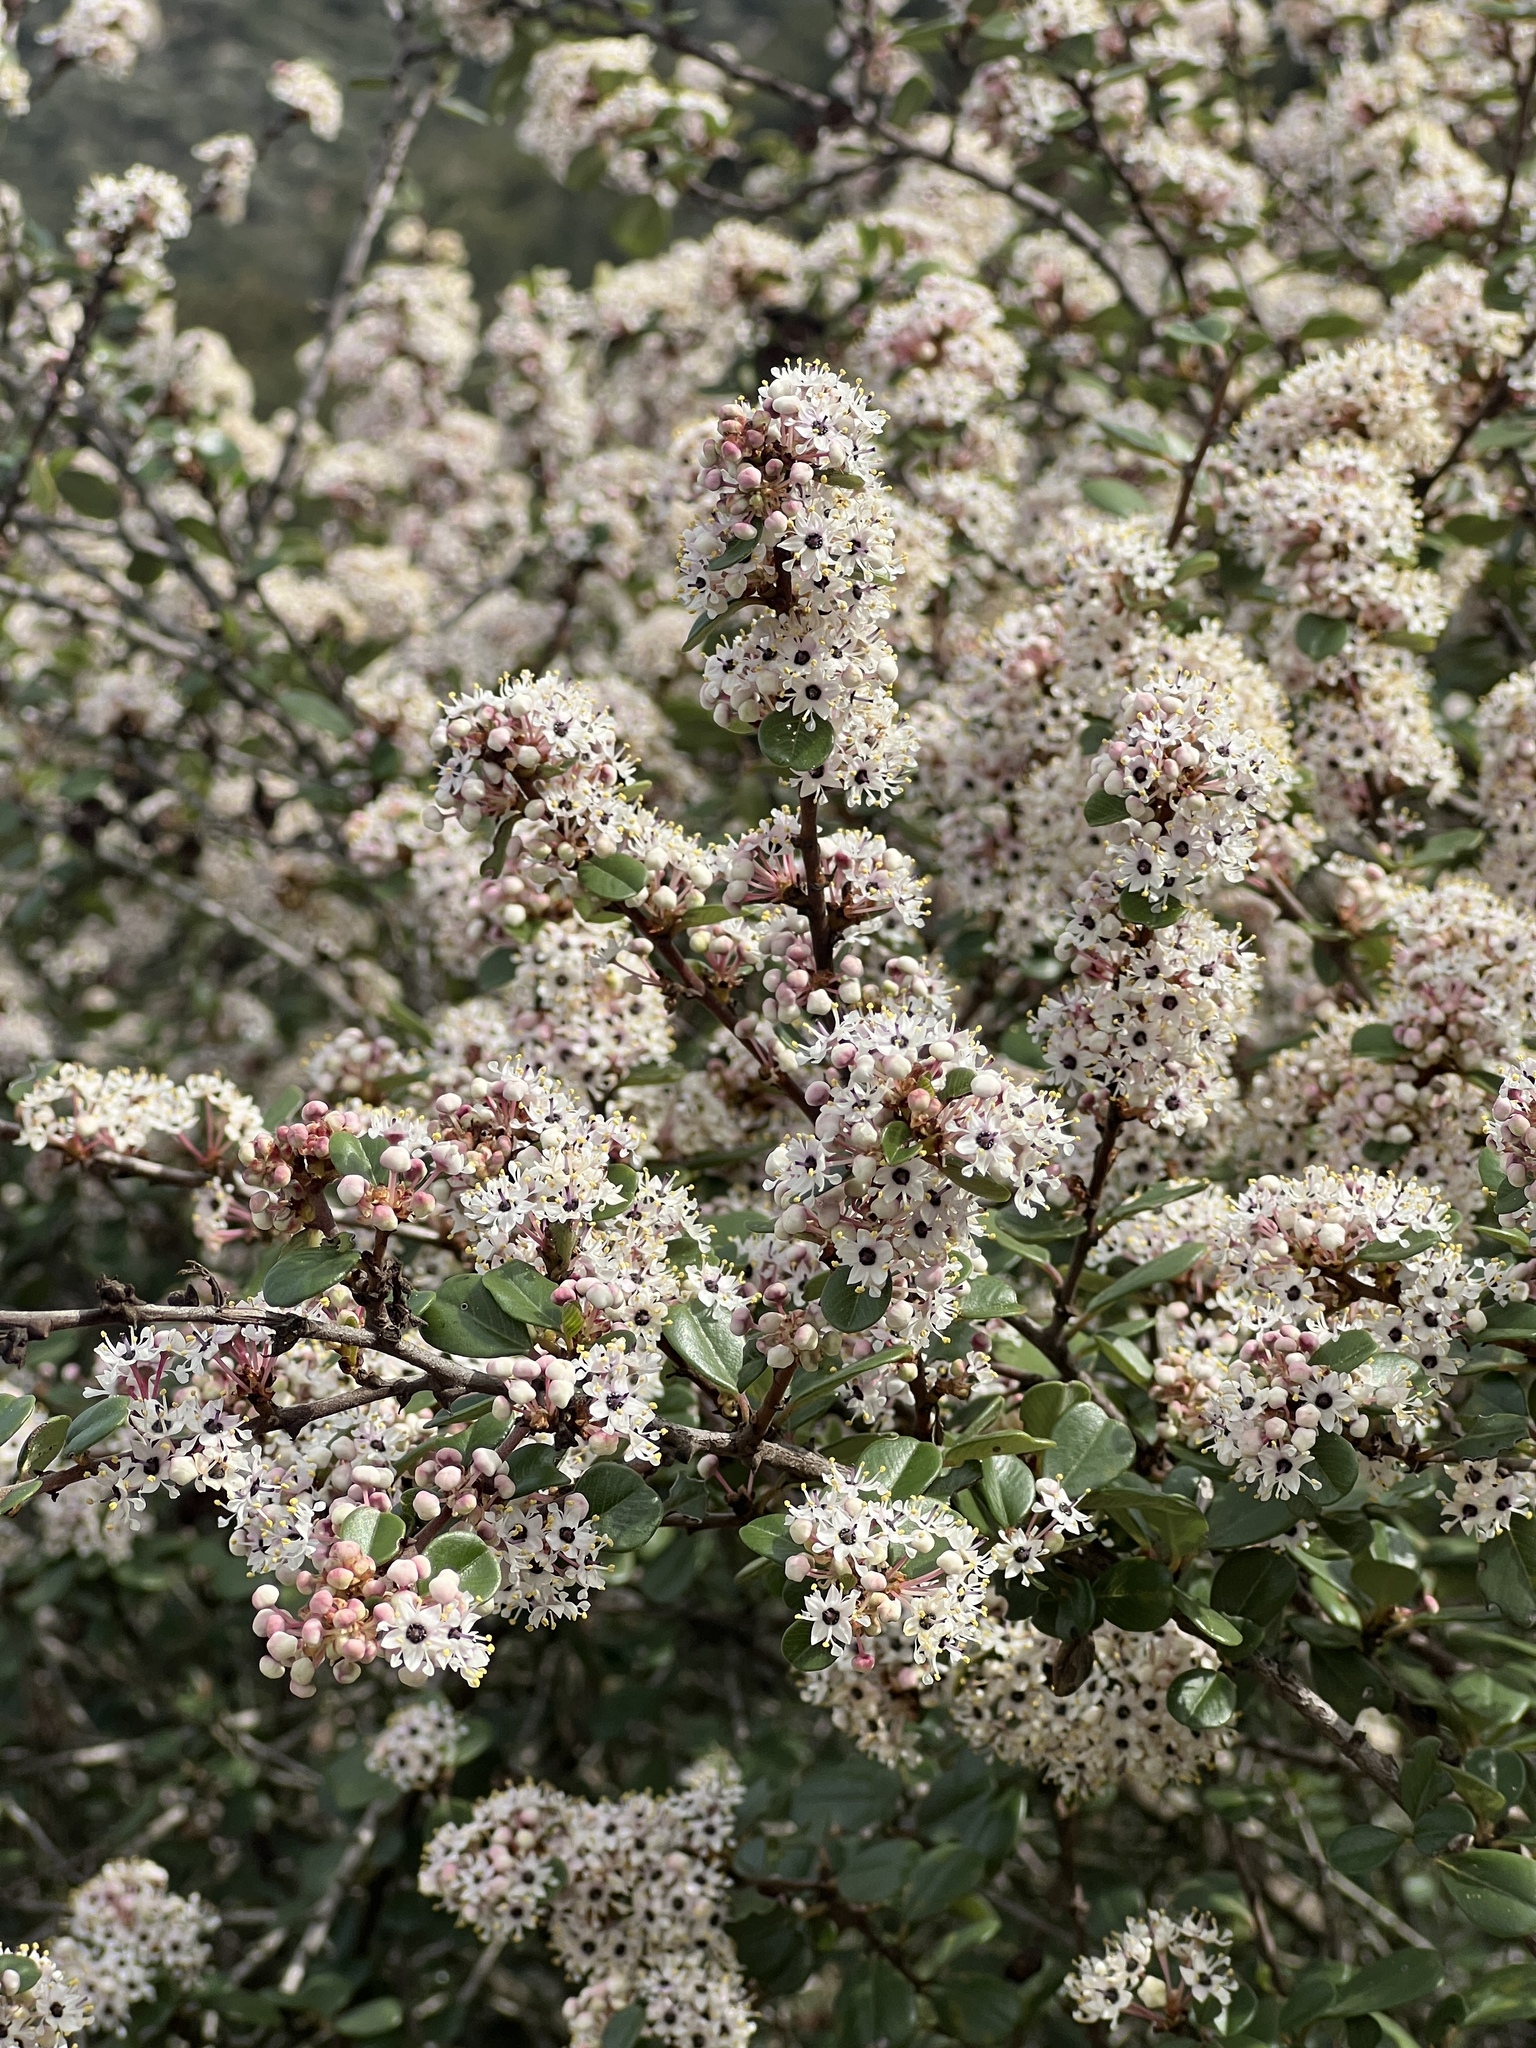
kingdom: Plantae
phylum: Tracheophyta
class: Magnoliopsida
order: Rosales
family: Rhamnaceae
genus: Ceanothus
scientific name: Ceanothus verrucosus
